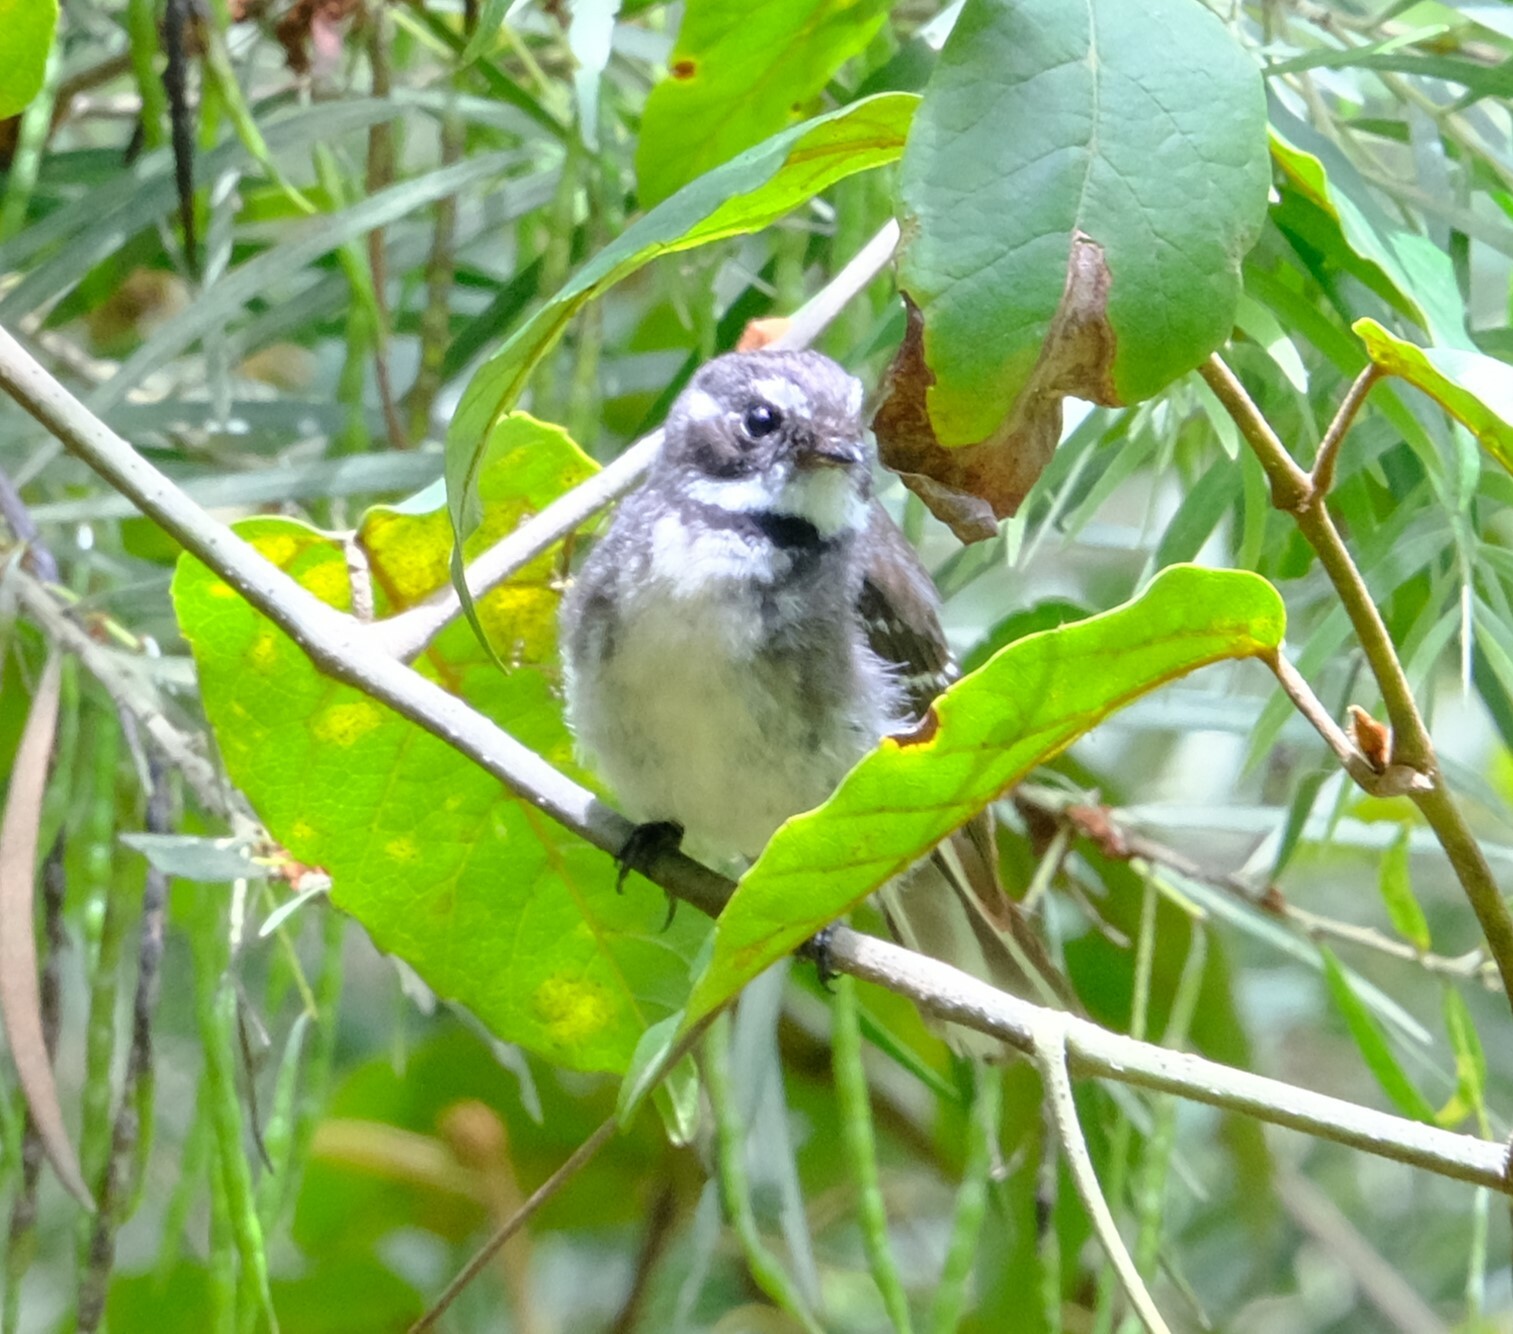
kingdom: Animalia
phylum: Chordata
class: Aves
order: Passeriformes
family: Rhipiduridae
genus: Rhipidura
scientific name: Rhipidura albiscapa
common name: Grey fantail
